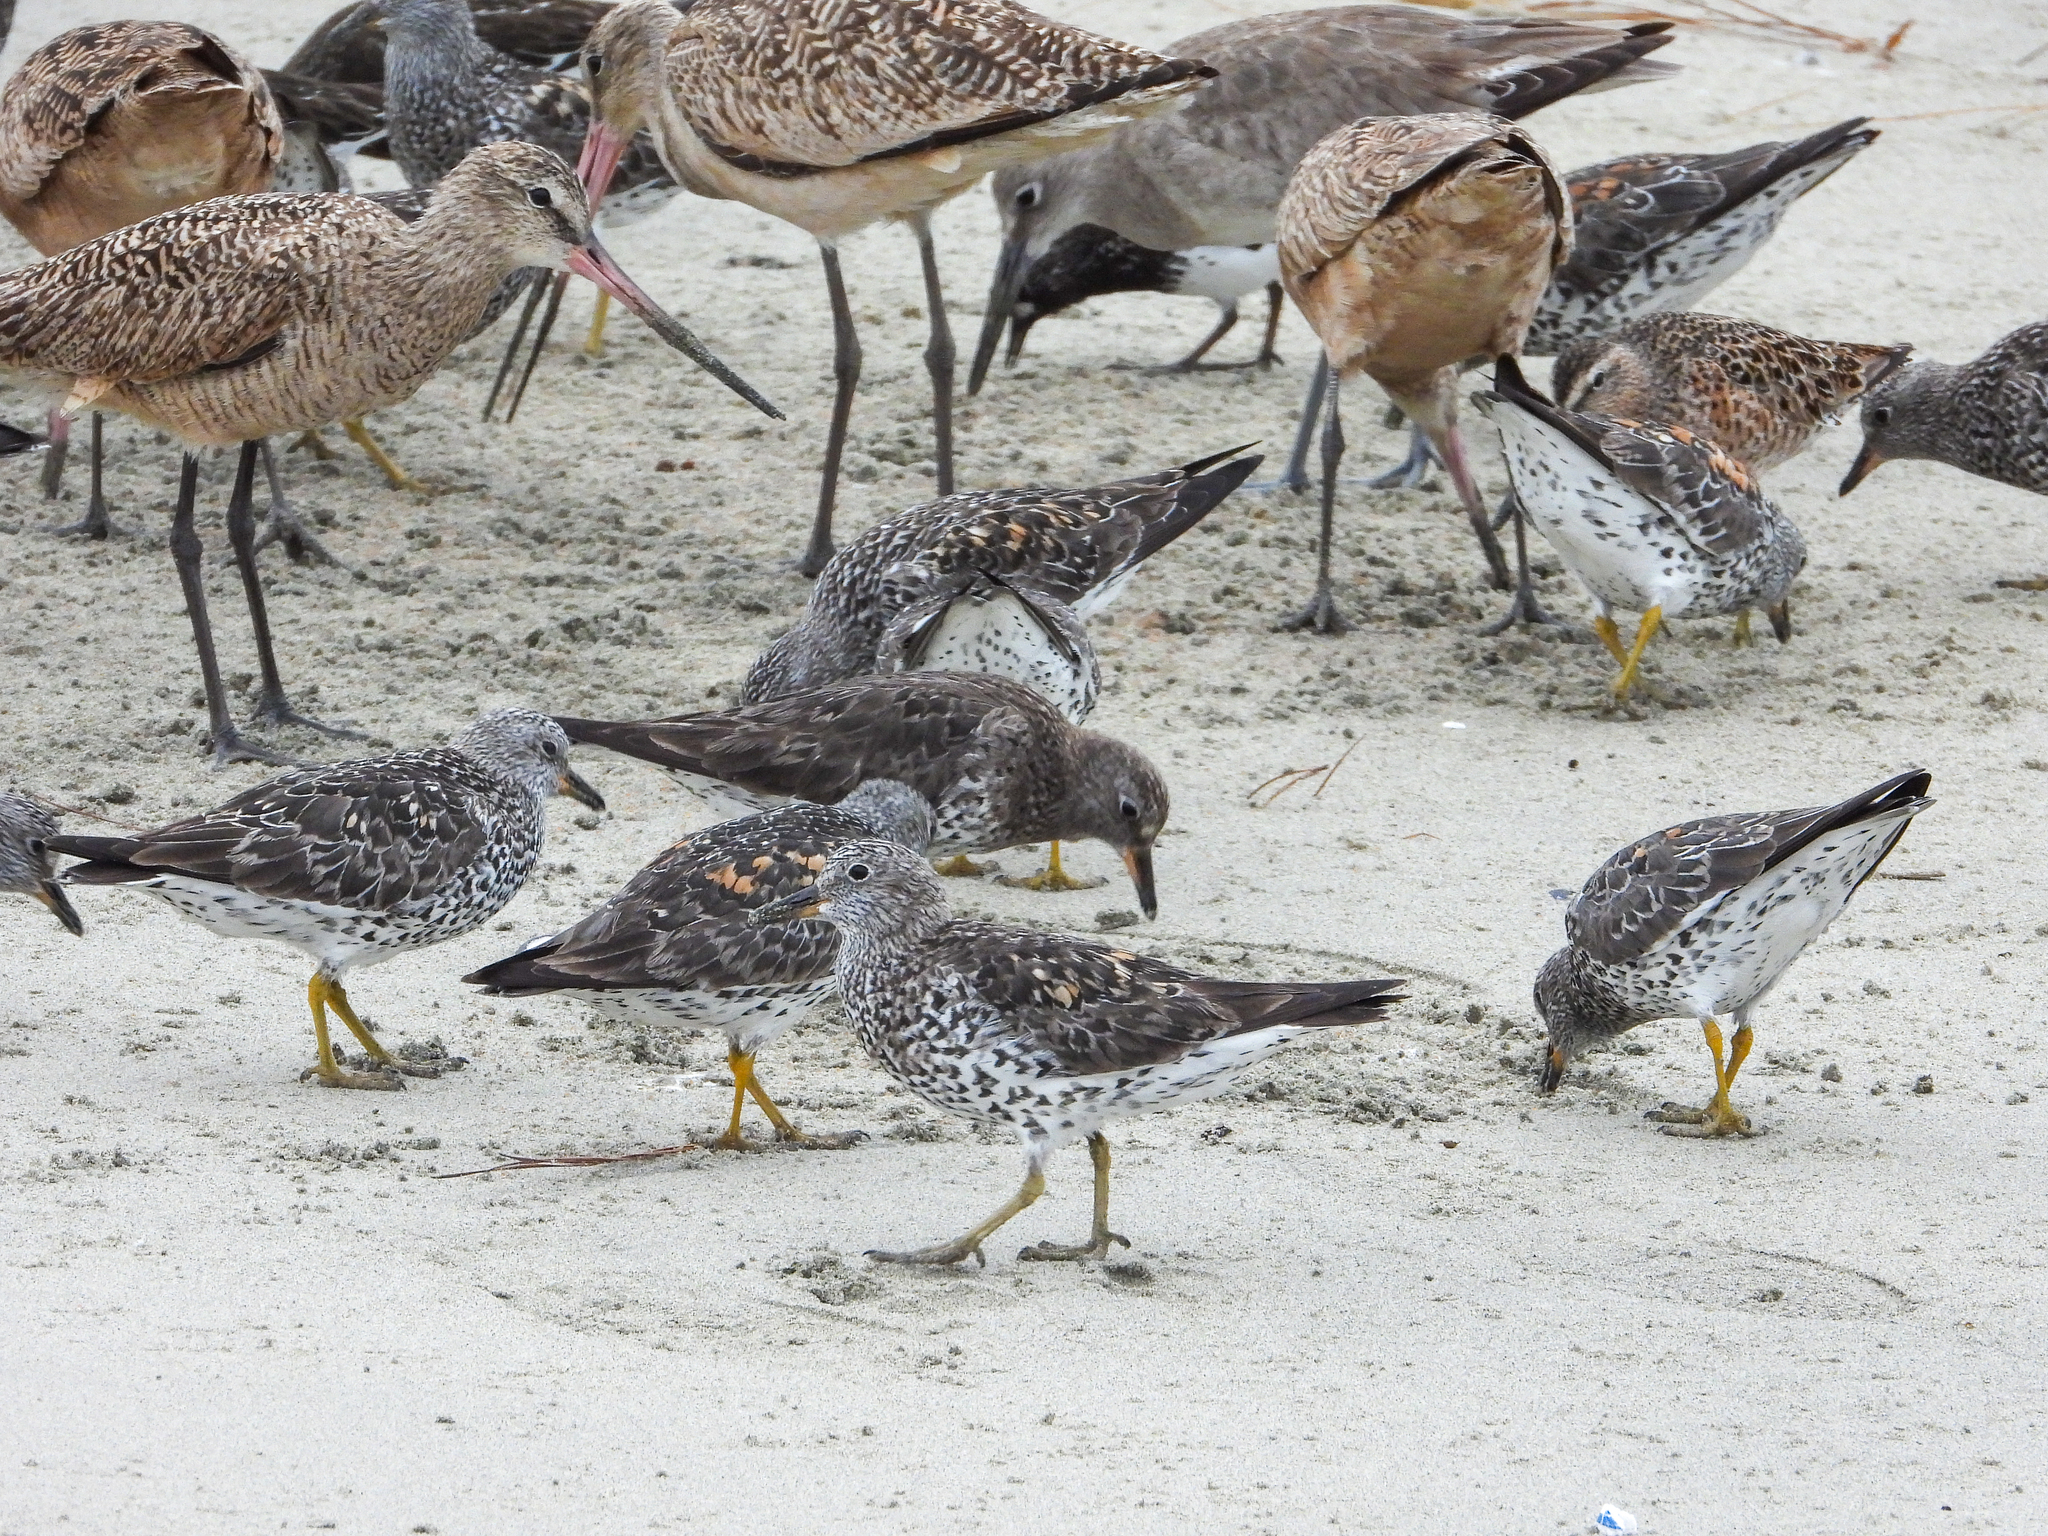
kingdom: Animalia
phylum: Chordata
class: Aves
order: Charadriiformes
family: Scolopacidae
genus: Calidris
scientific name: Calidris virgata
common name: Surfbird
